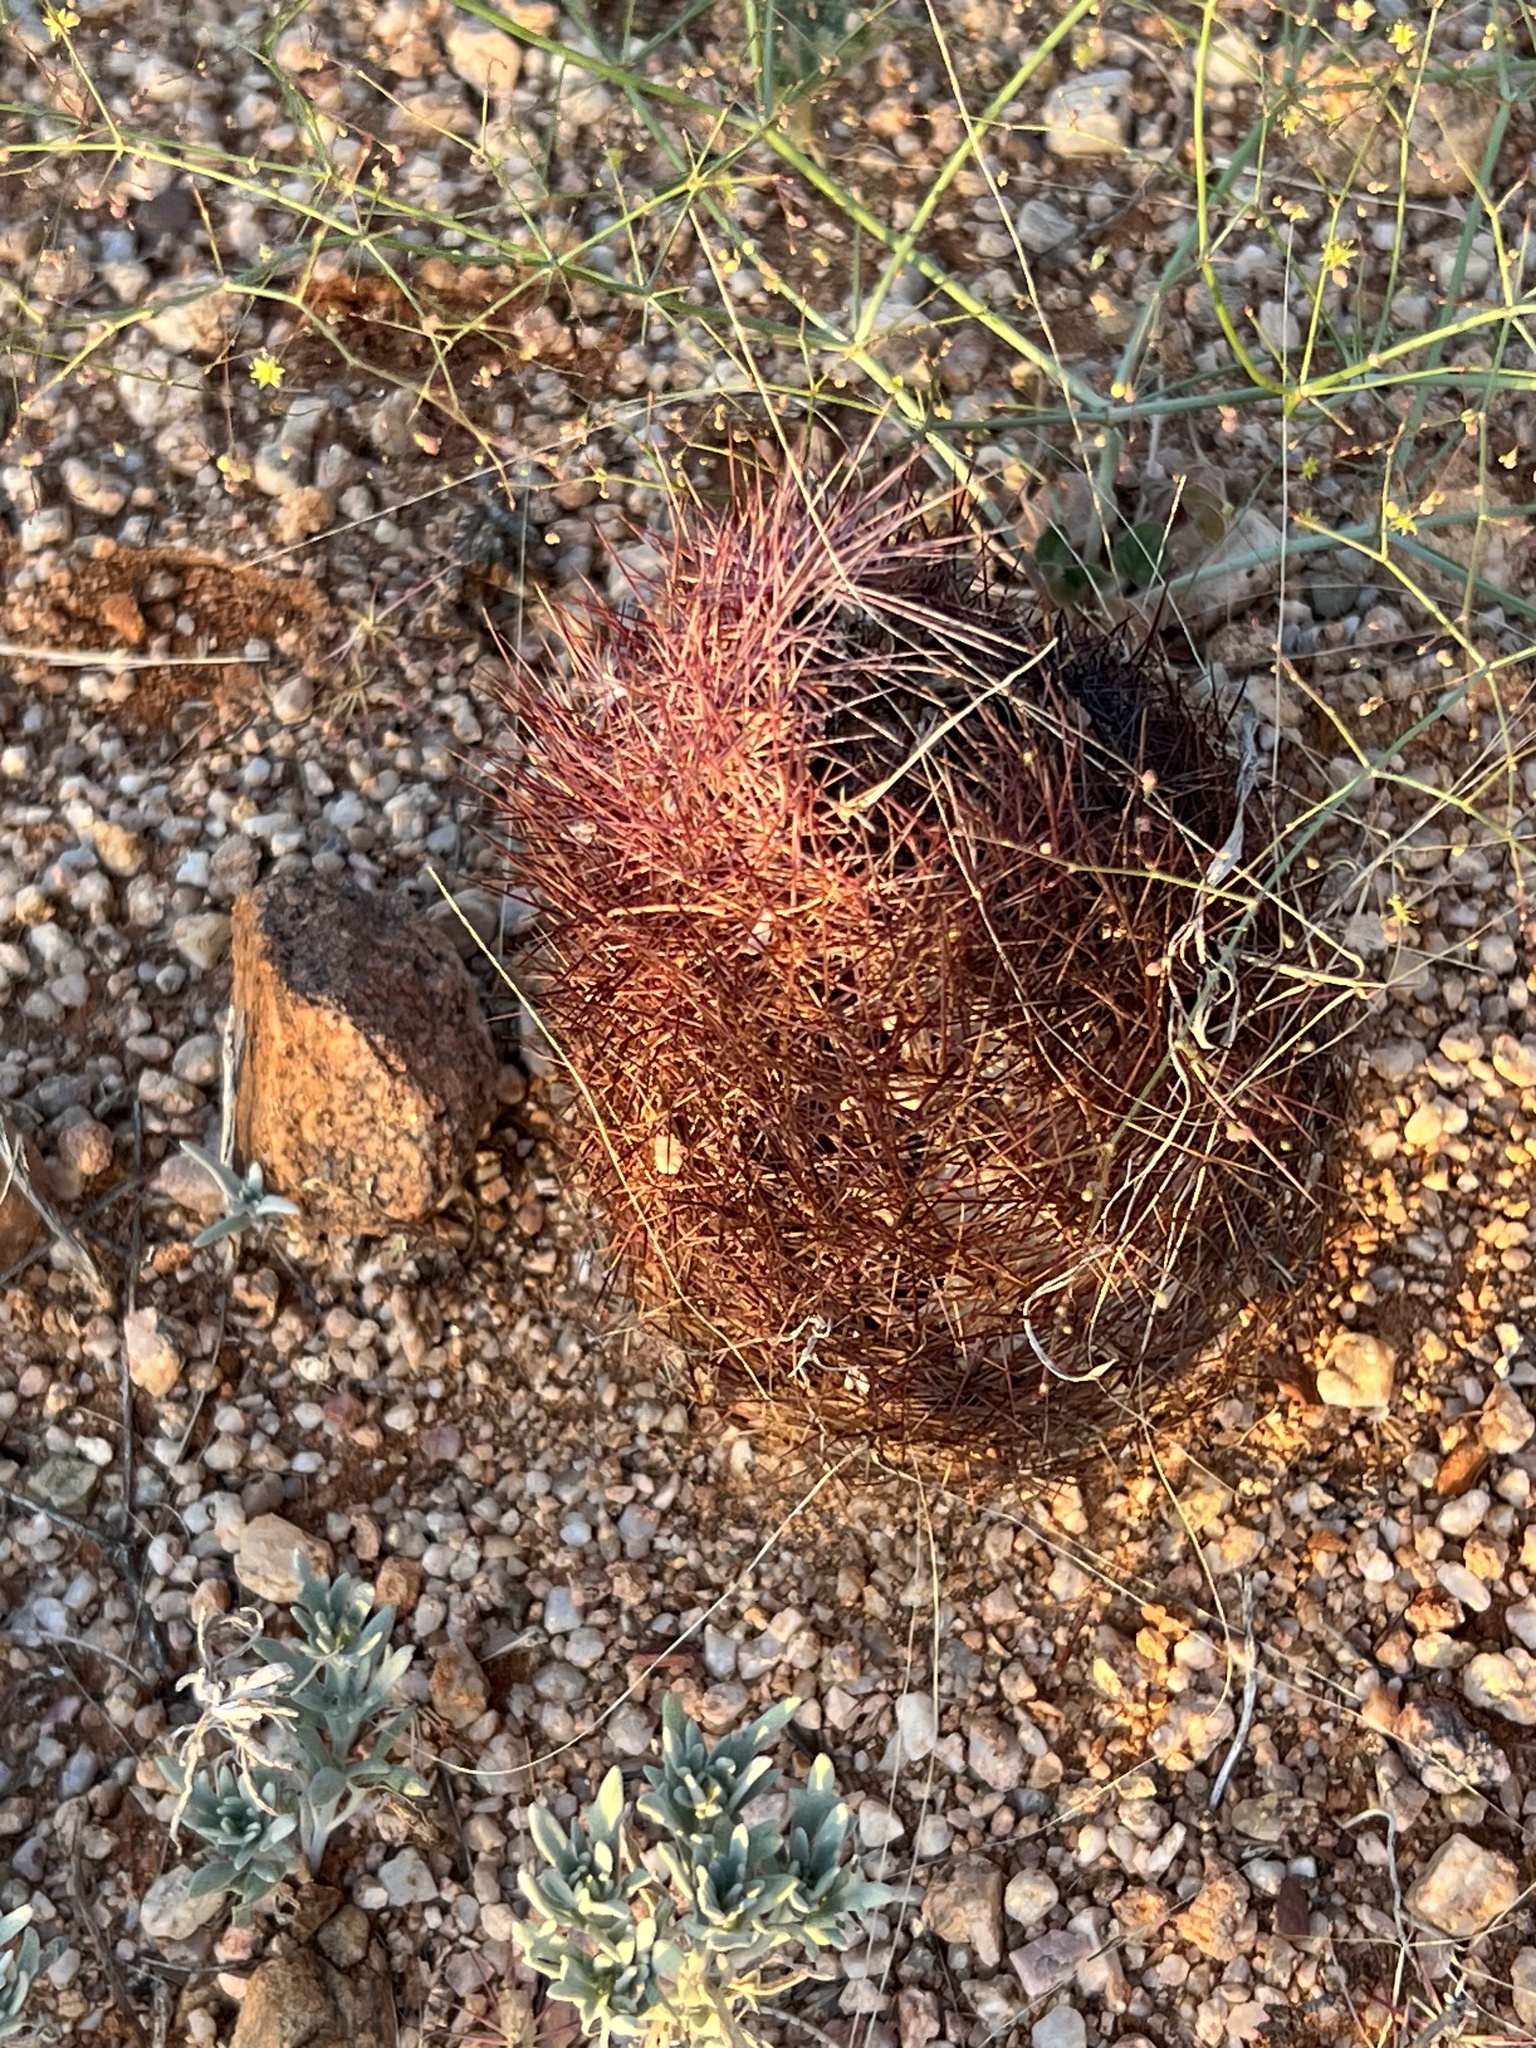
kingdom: Plantae
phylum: Tracheophyta
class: Magnoliopsida
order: Caryophyllales
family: Cactaceae
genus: Sclerocactus
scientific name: Sclerocactus johnsonii
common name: Eight-spine fishhook cactus
